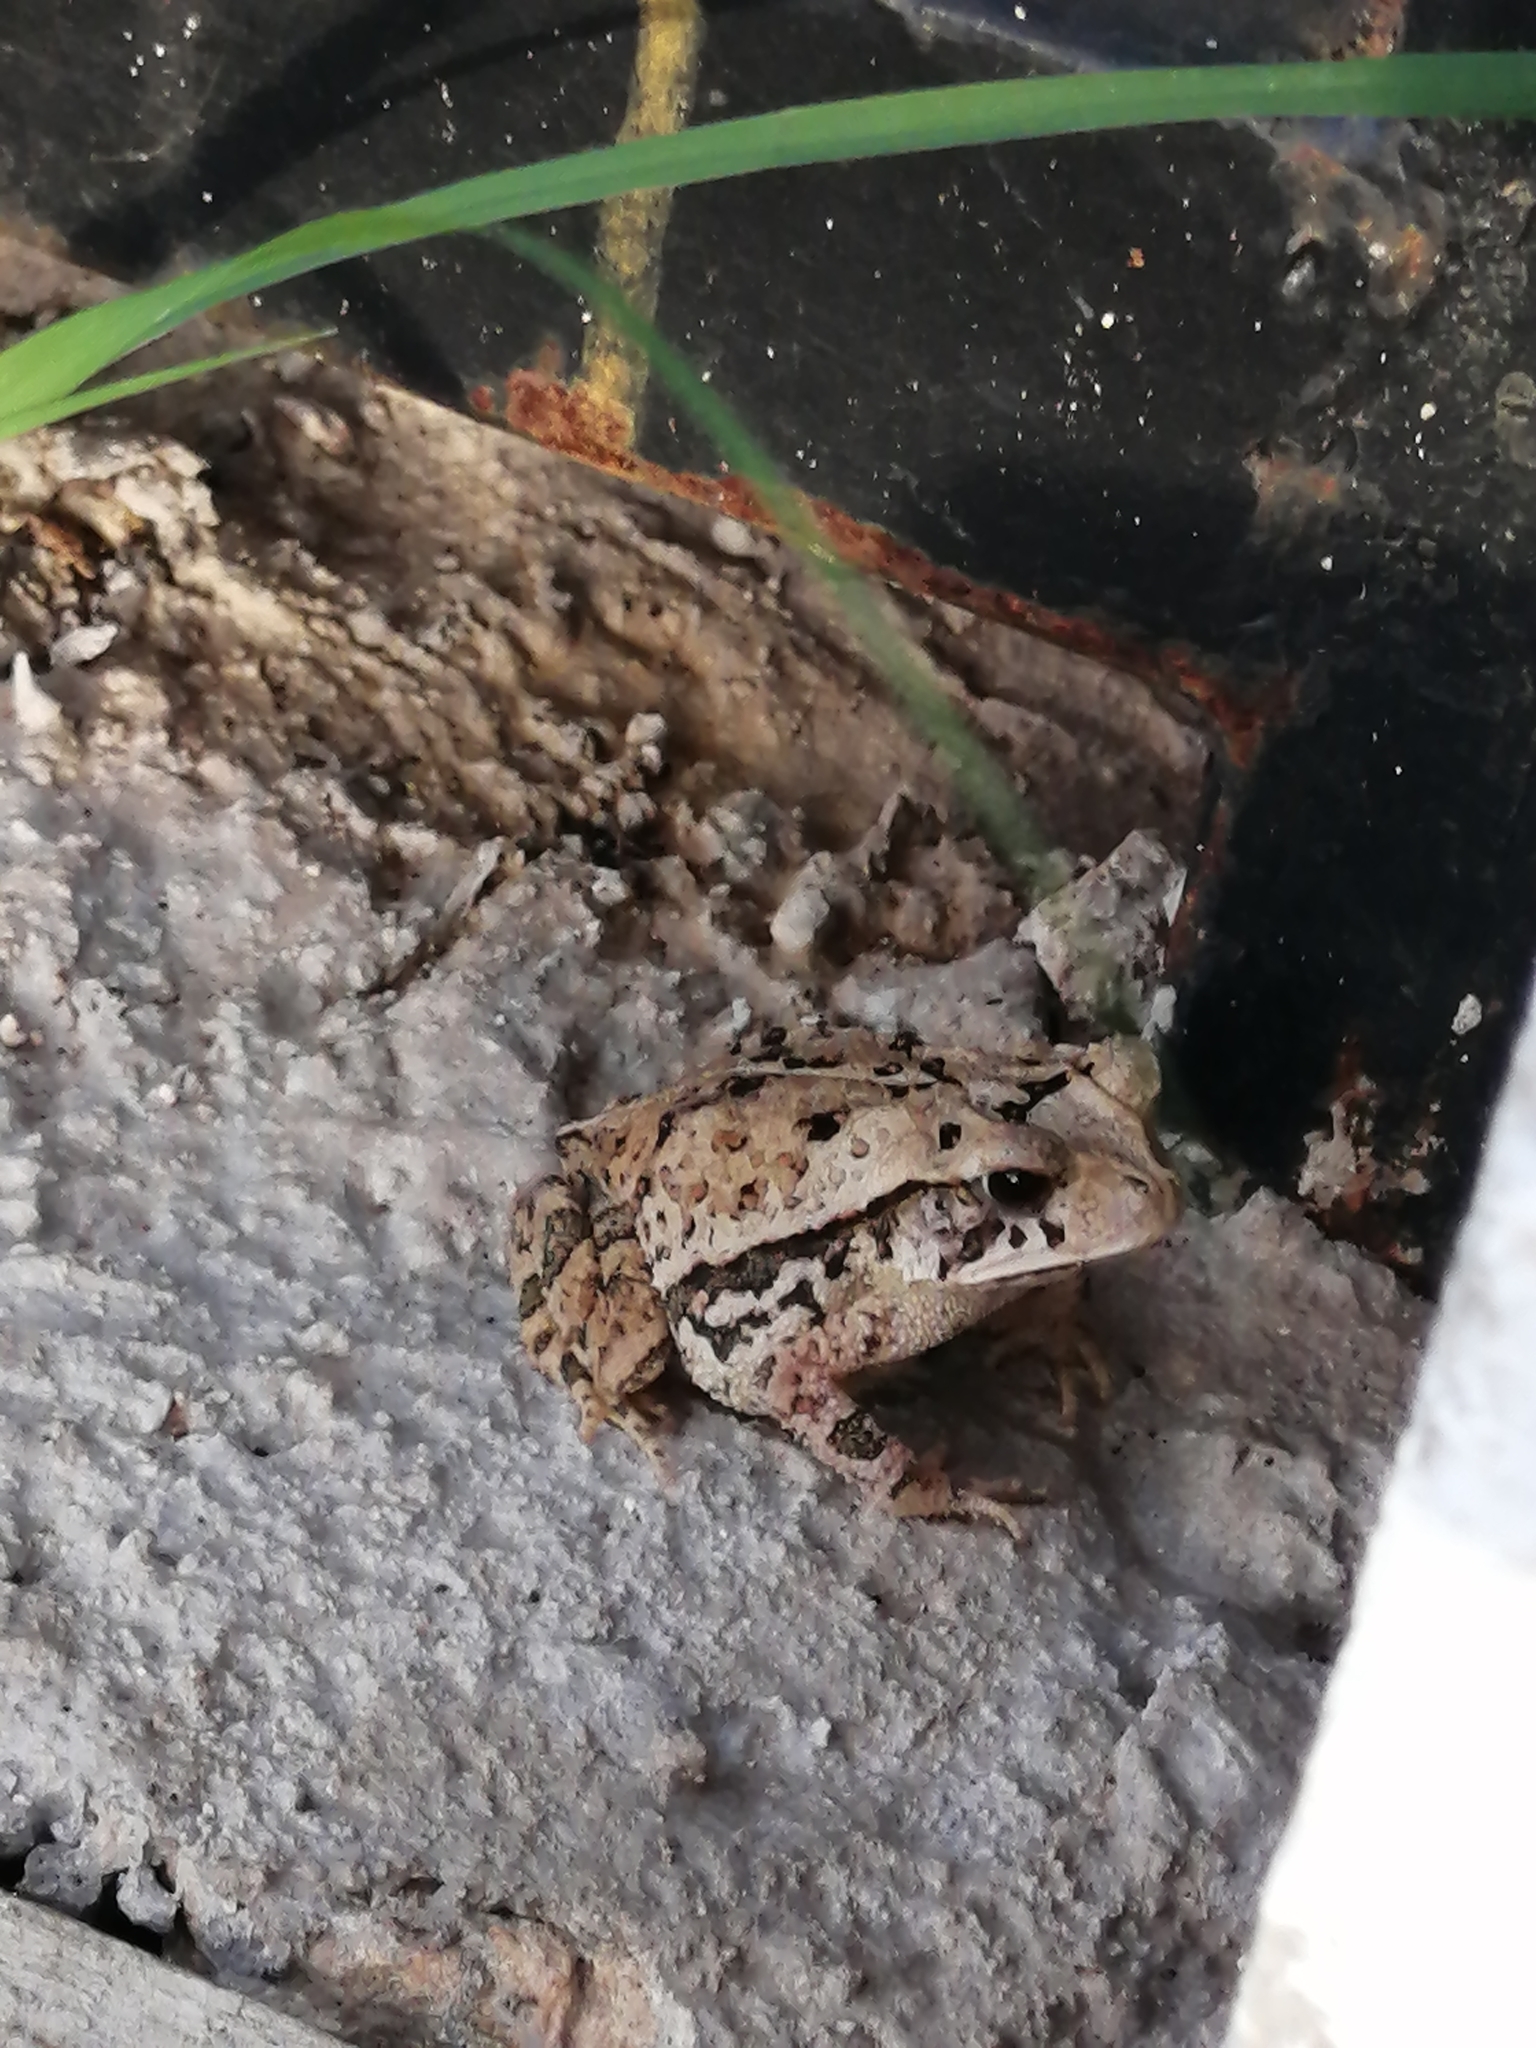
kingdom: Animalia
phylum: Chordata
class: Amphibia
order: Anura
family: Bufonidae
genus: Incilius
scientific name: Incilius valliceps
